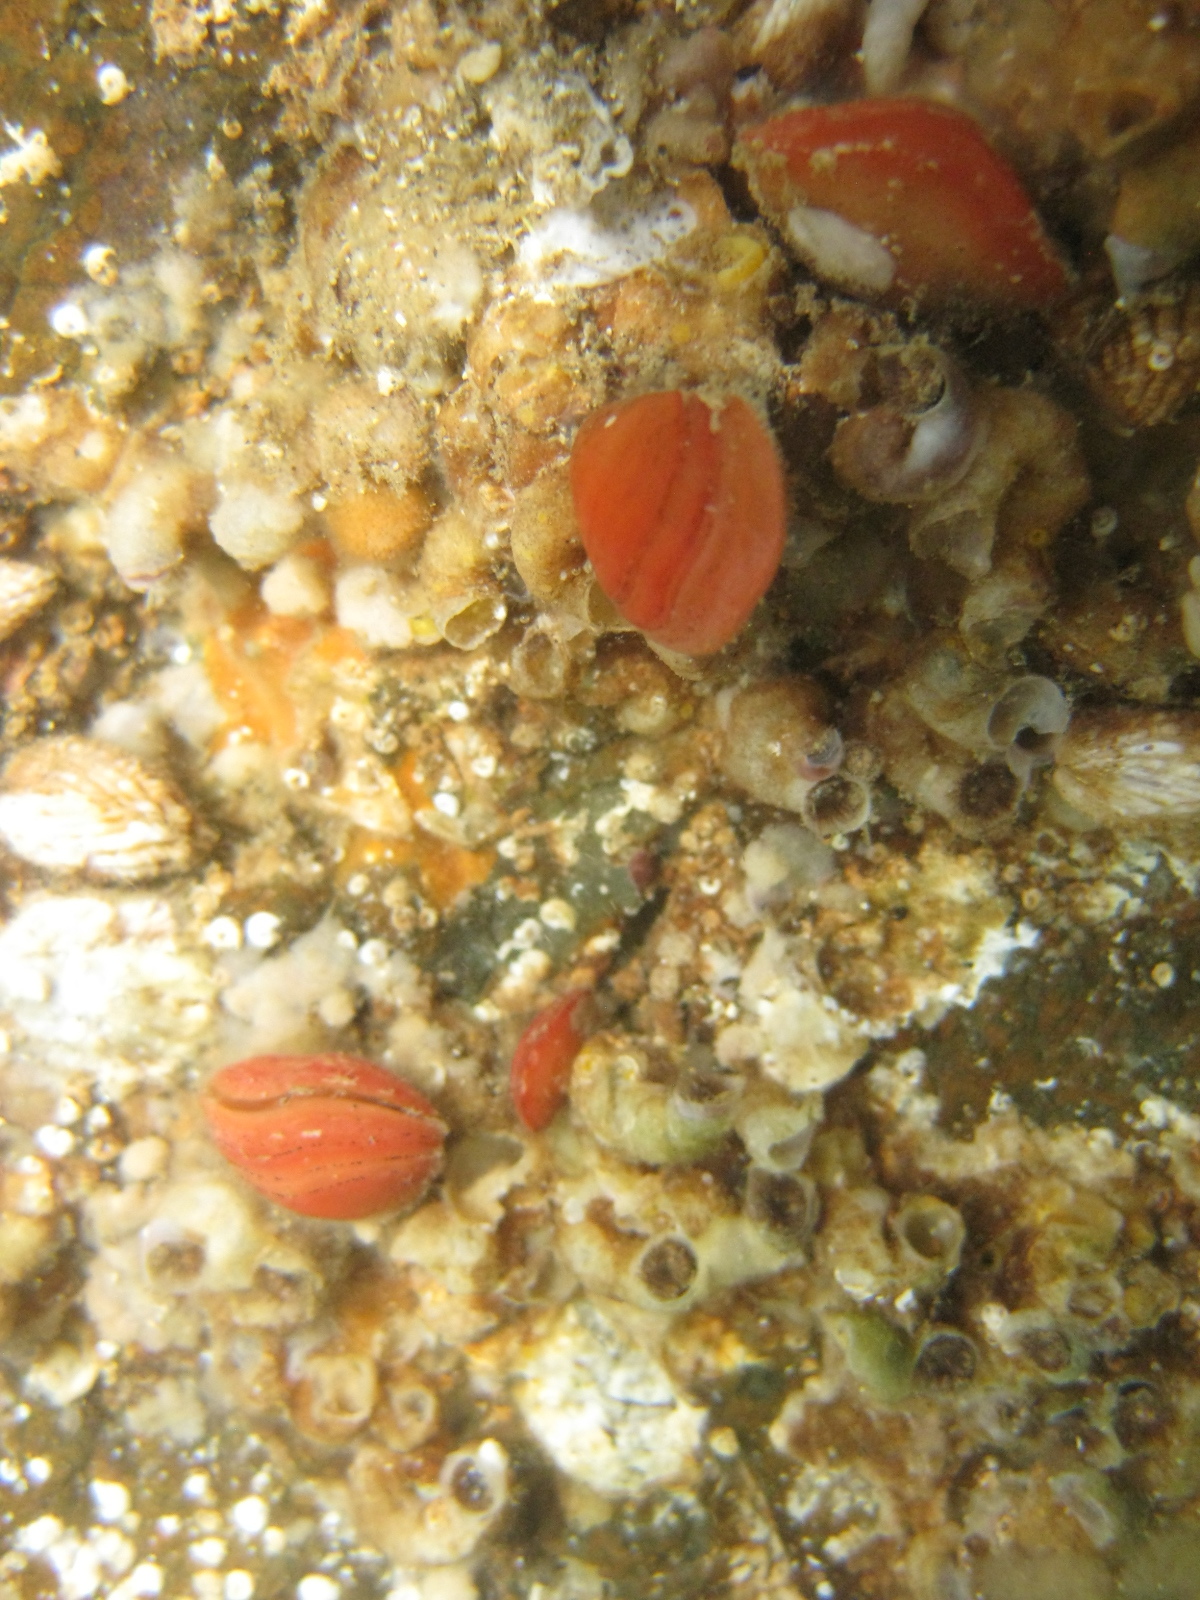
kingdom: Animalia
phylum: Brachiopoda
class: Rhynchonellata
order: Terebratulida
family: Terebratellidae
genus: Calloria
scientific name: Calloria inconspicua
